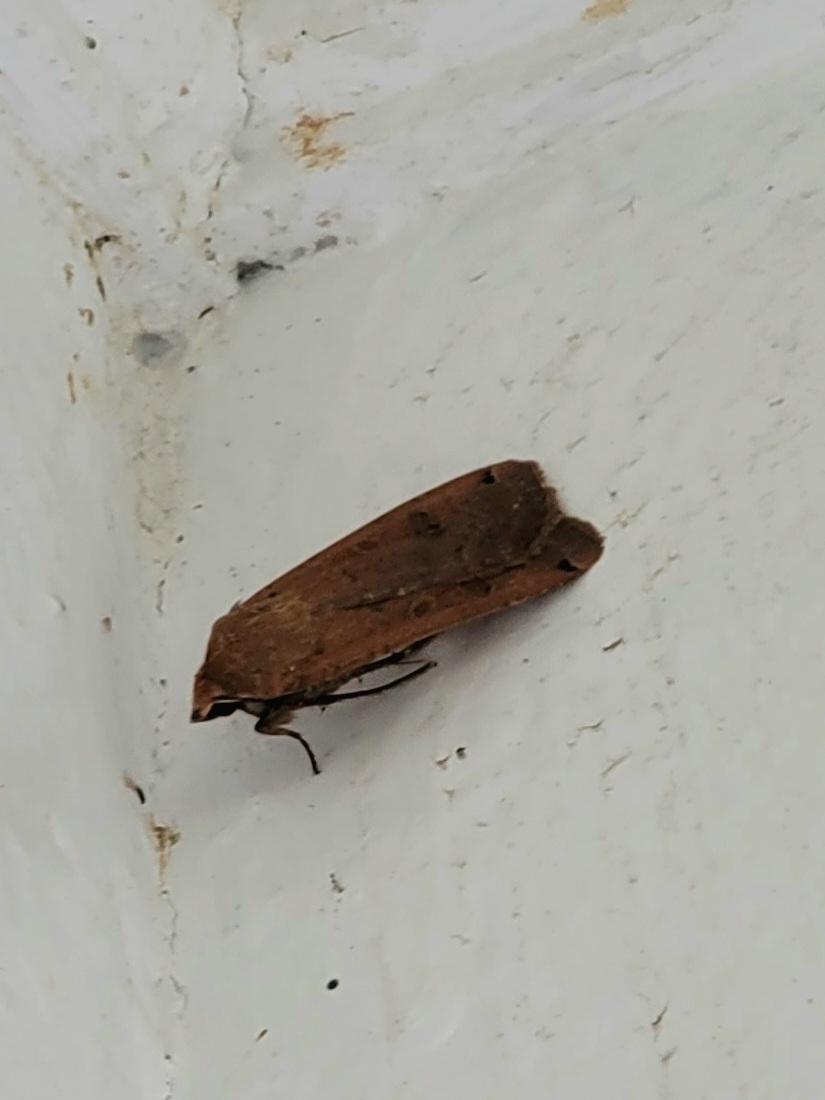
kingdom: Animalia
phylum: Arthropoda
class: Insecta
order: Lepidoptera
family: Noctuidae
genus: Noctua
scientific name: Noctua pronuba
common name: Large yellow underwing
